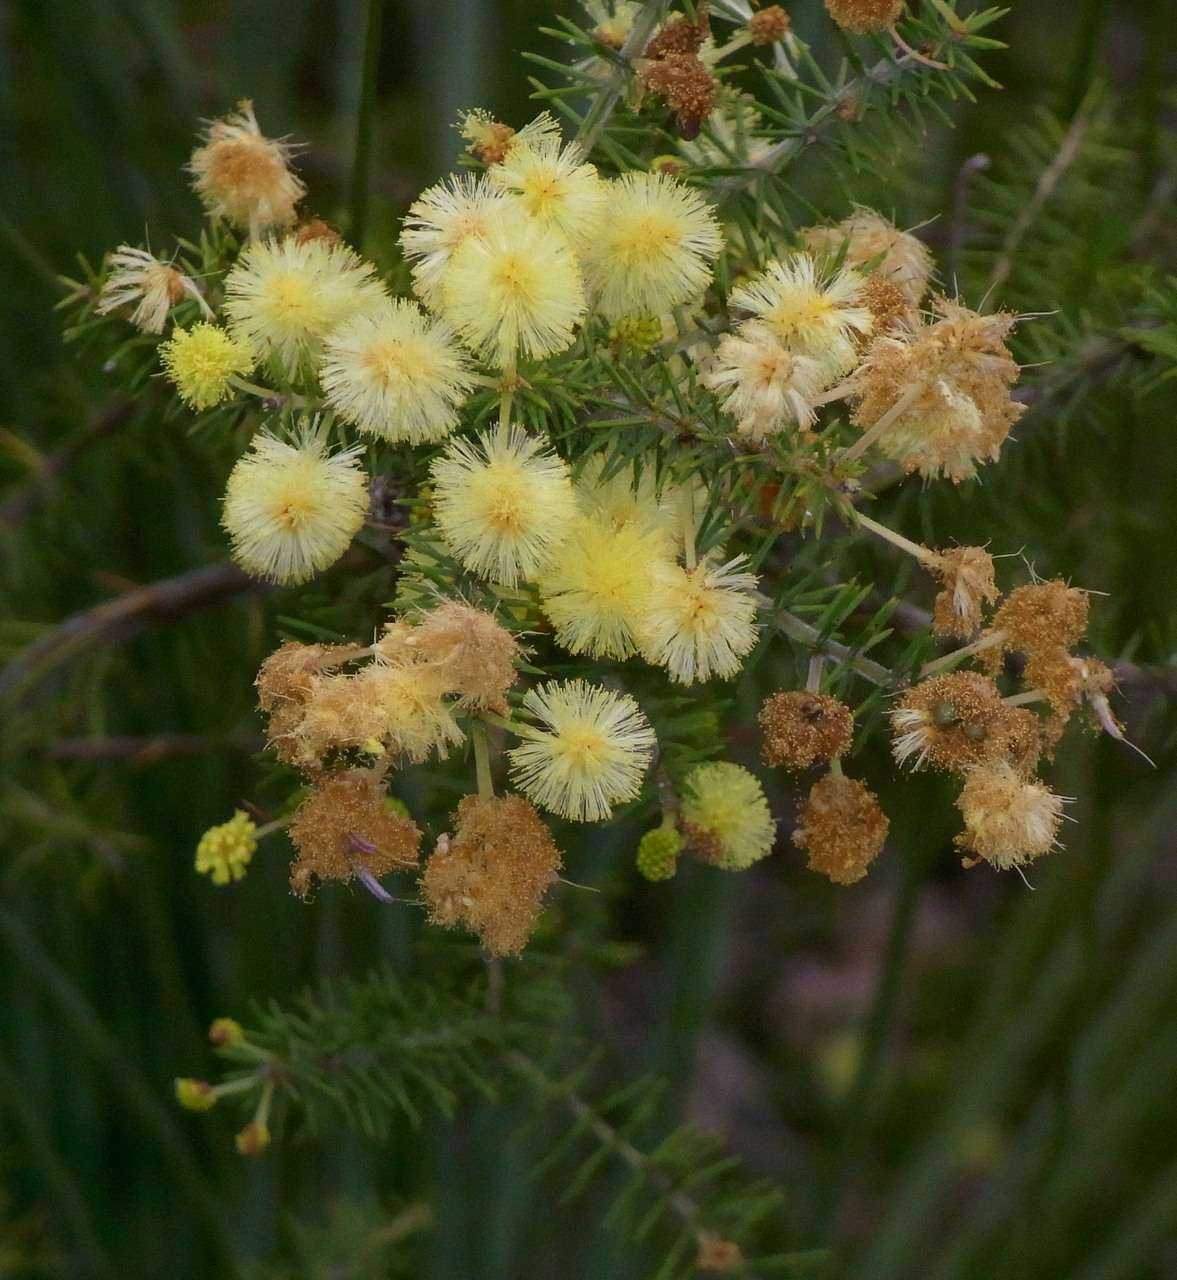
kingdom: Plantae
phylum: Tracheophyta
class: Magnoliopsida
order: Fabales
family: Fabaceae
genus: Acacia
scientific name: Acacia verticillata
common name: Prickly moses
